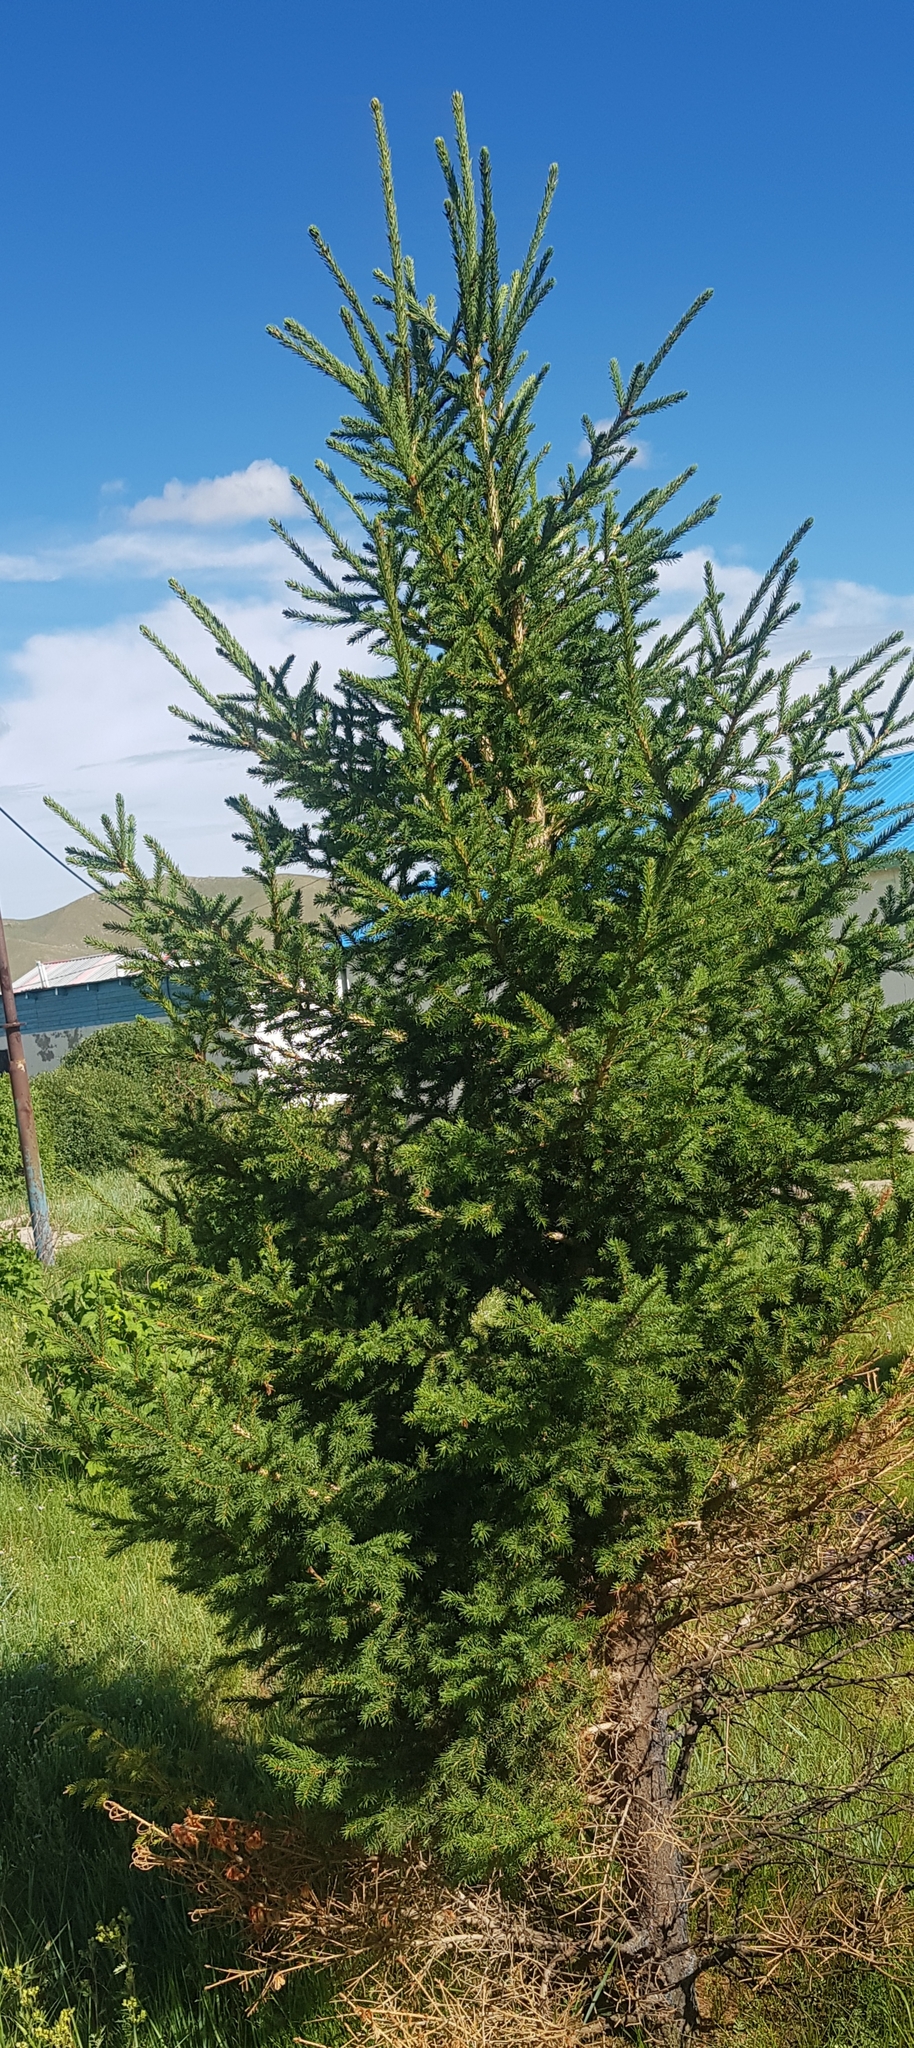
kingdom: Plantae
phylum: Tracheophyta
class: Pinopsida
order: Pinales
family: Pinaceae
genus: Picea
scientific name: Picea obovata
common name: Siberian spruce
